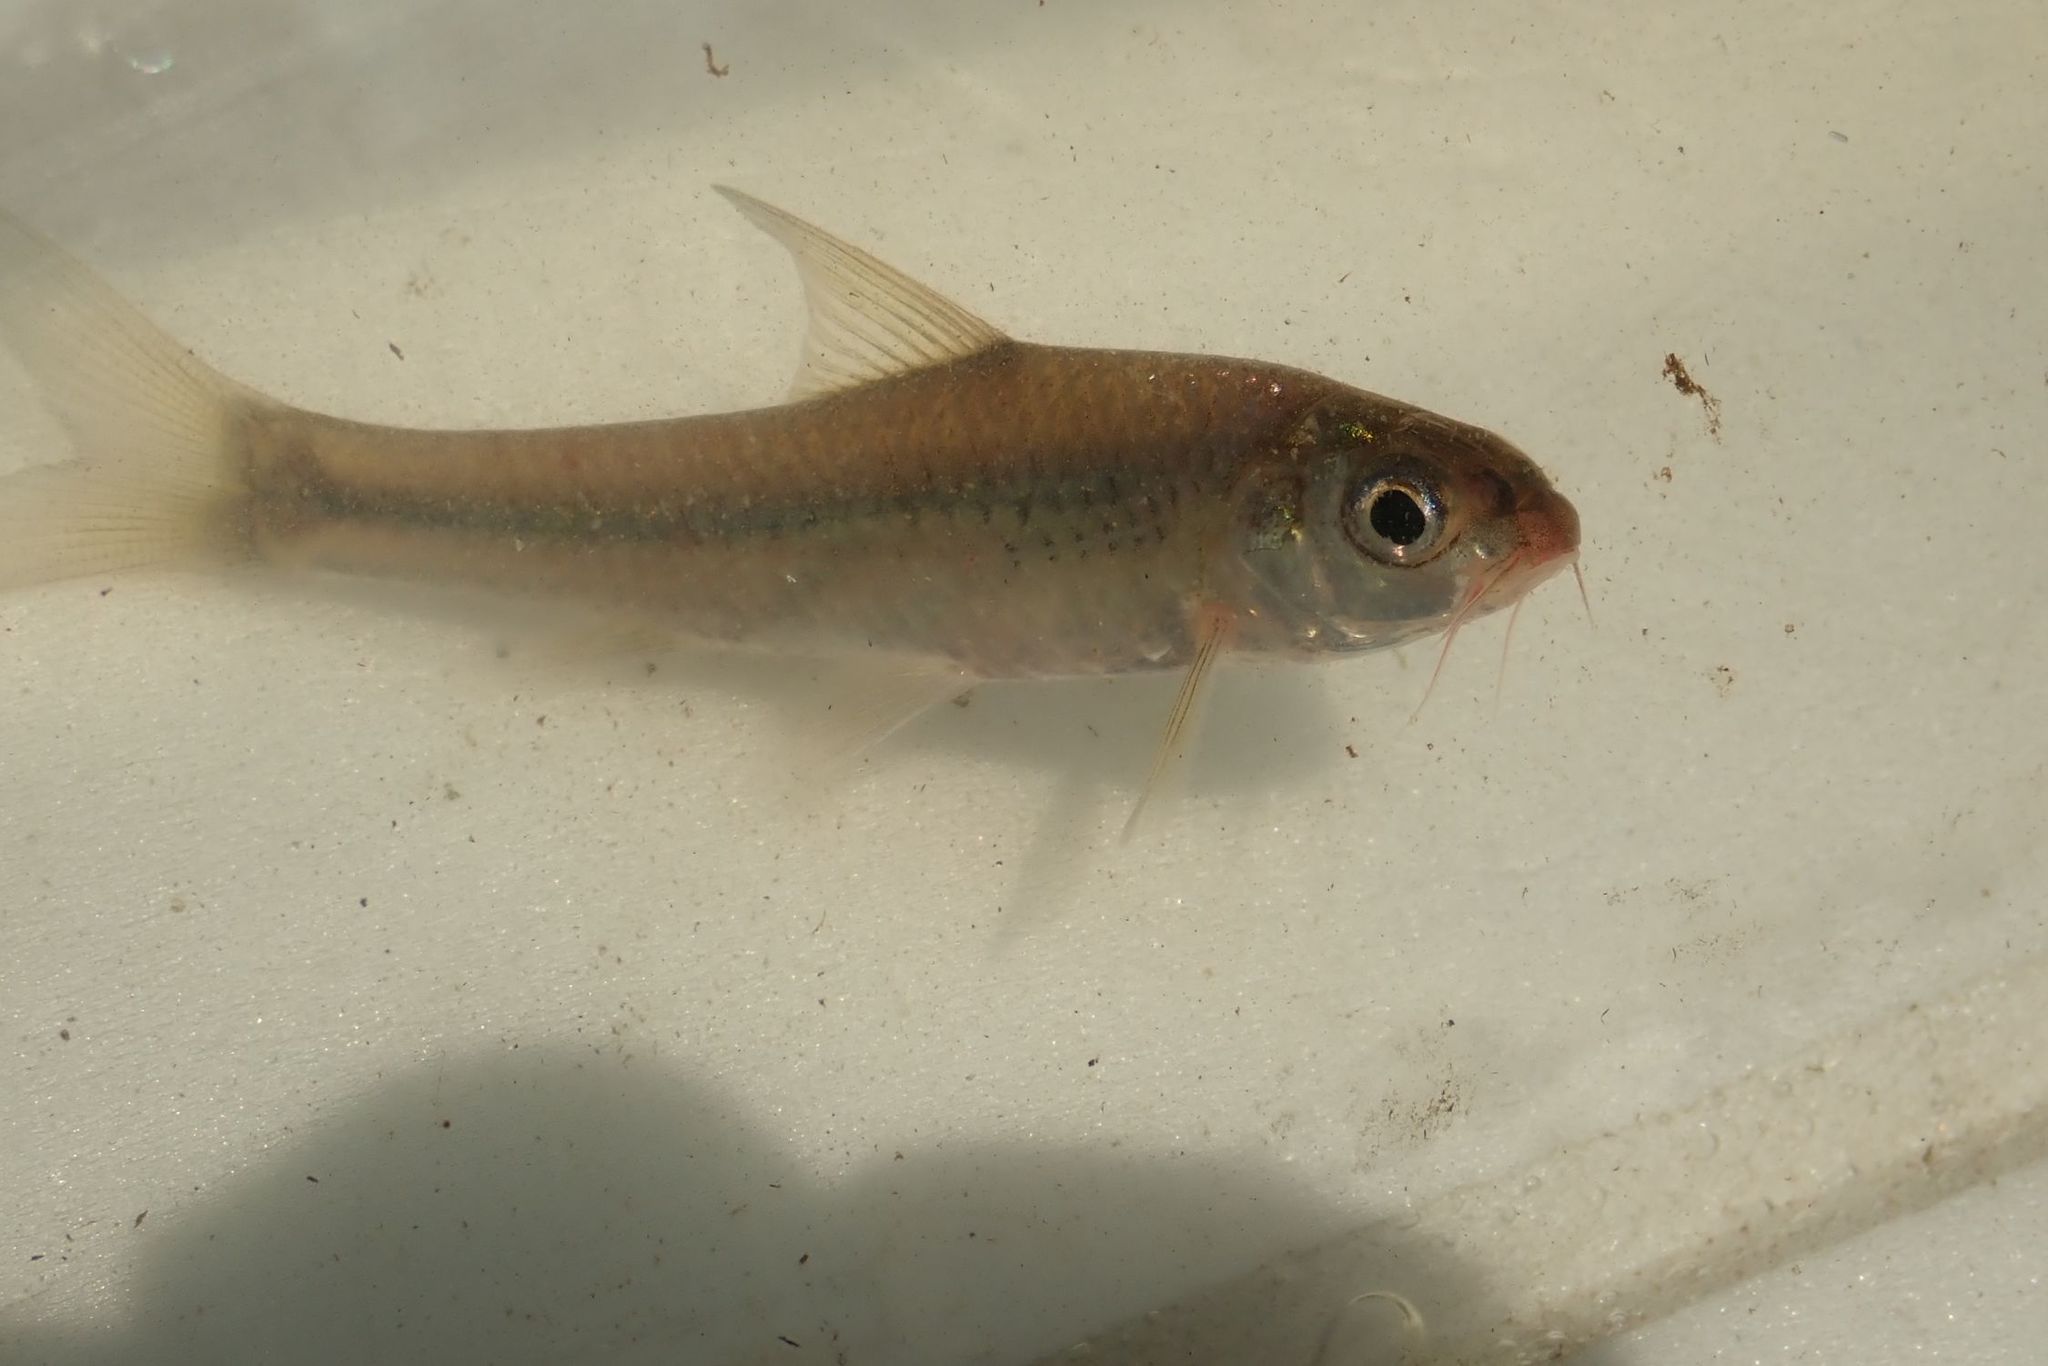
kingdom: Animalia
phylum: Chordata
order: Cypriniformes
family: Cyprinidae
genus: Enteromius
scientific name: Enteromius unitaeniatus
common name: Longbeard barb
